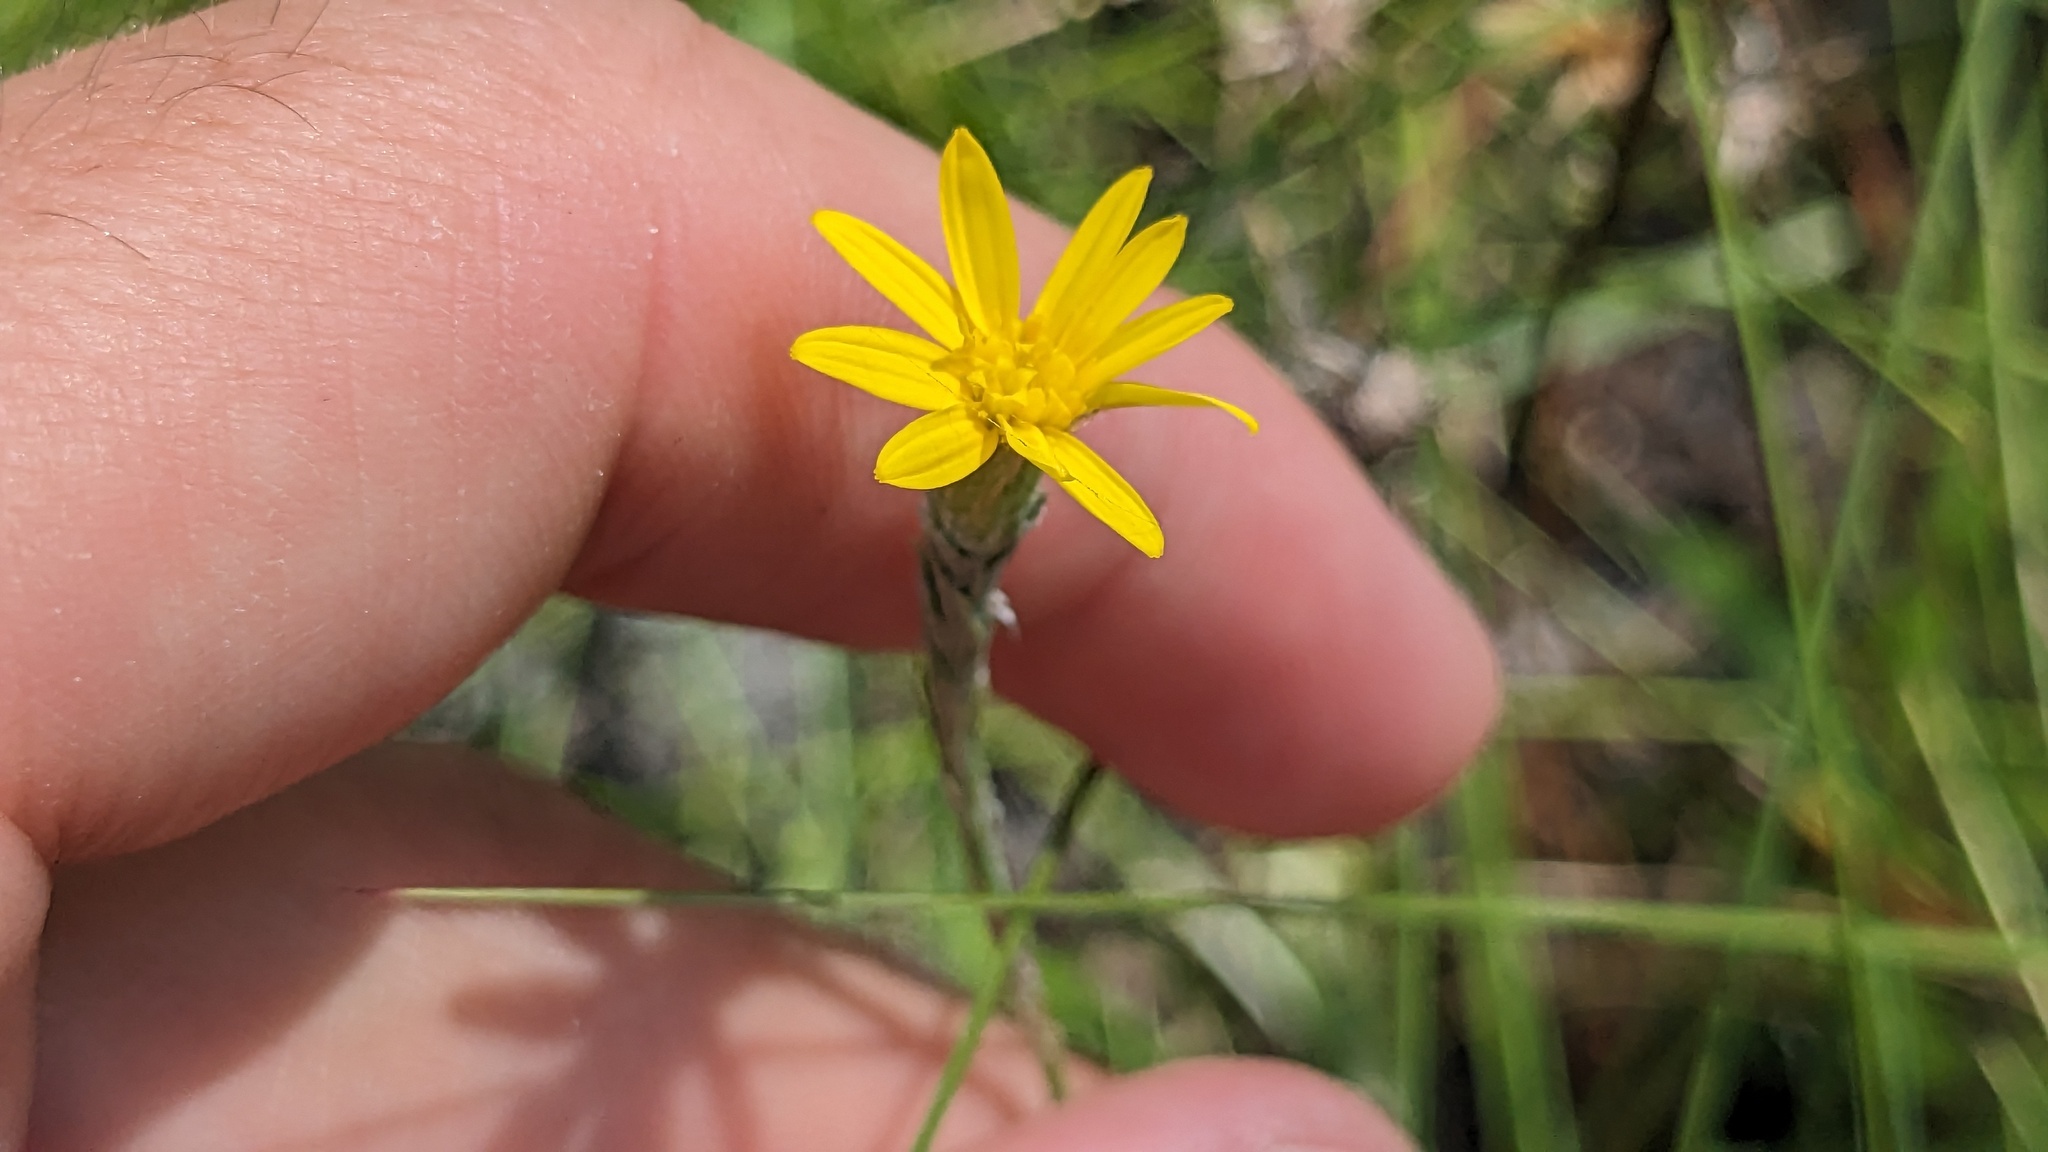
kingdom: Plantae
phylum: Tracheophyta
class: Magnoliopsida
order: Asterales
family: Asteraceae
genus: Pityopsis
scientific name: Pityopsis graminifolia
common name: Grass-leaf golden-aster
